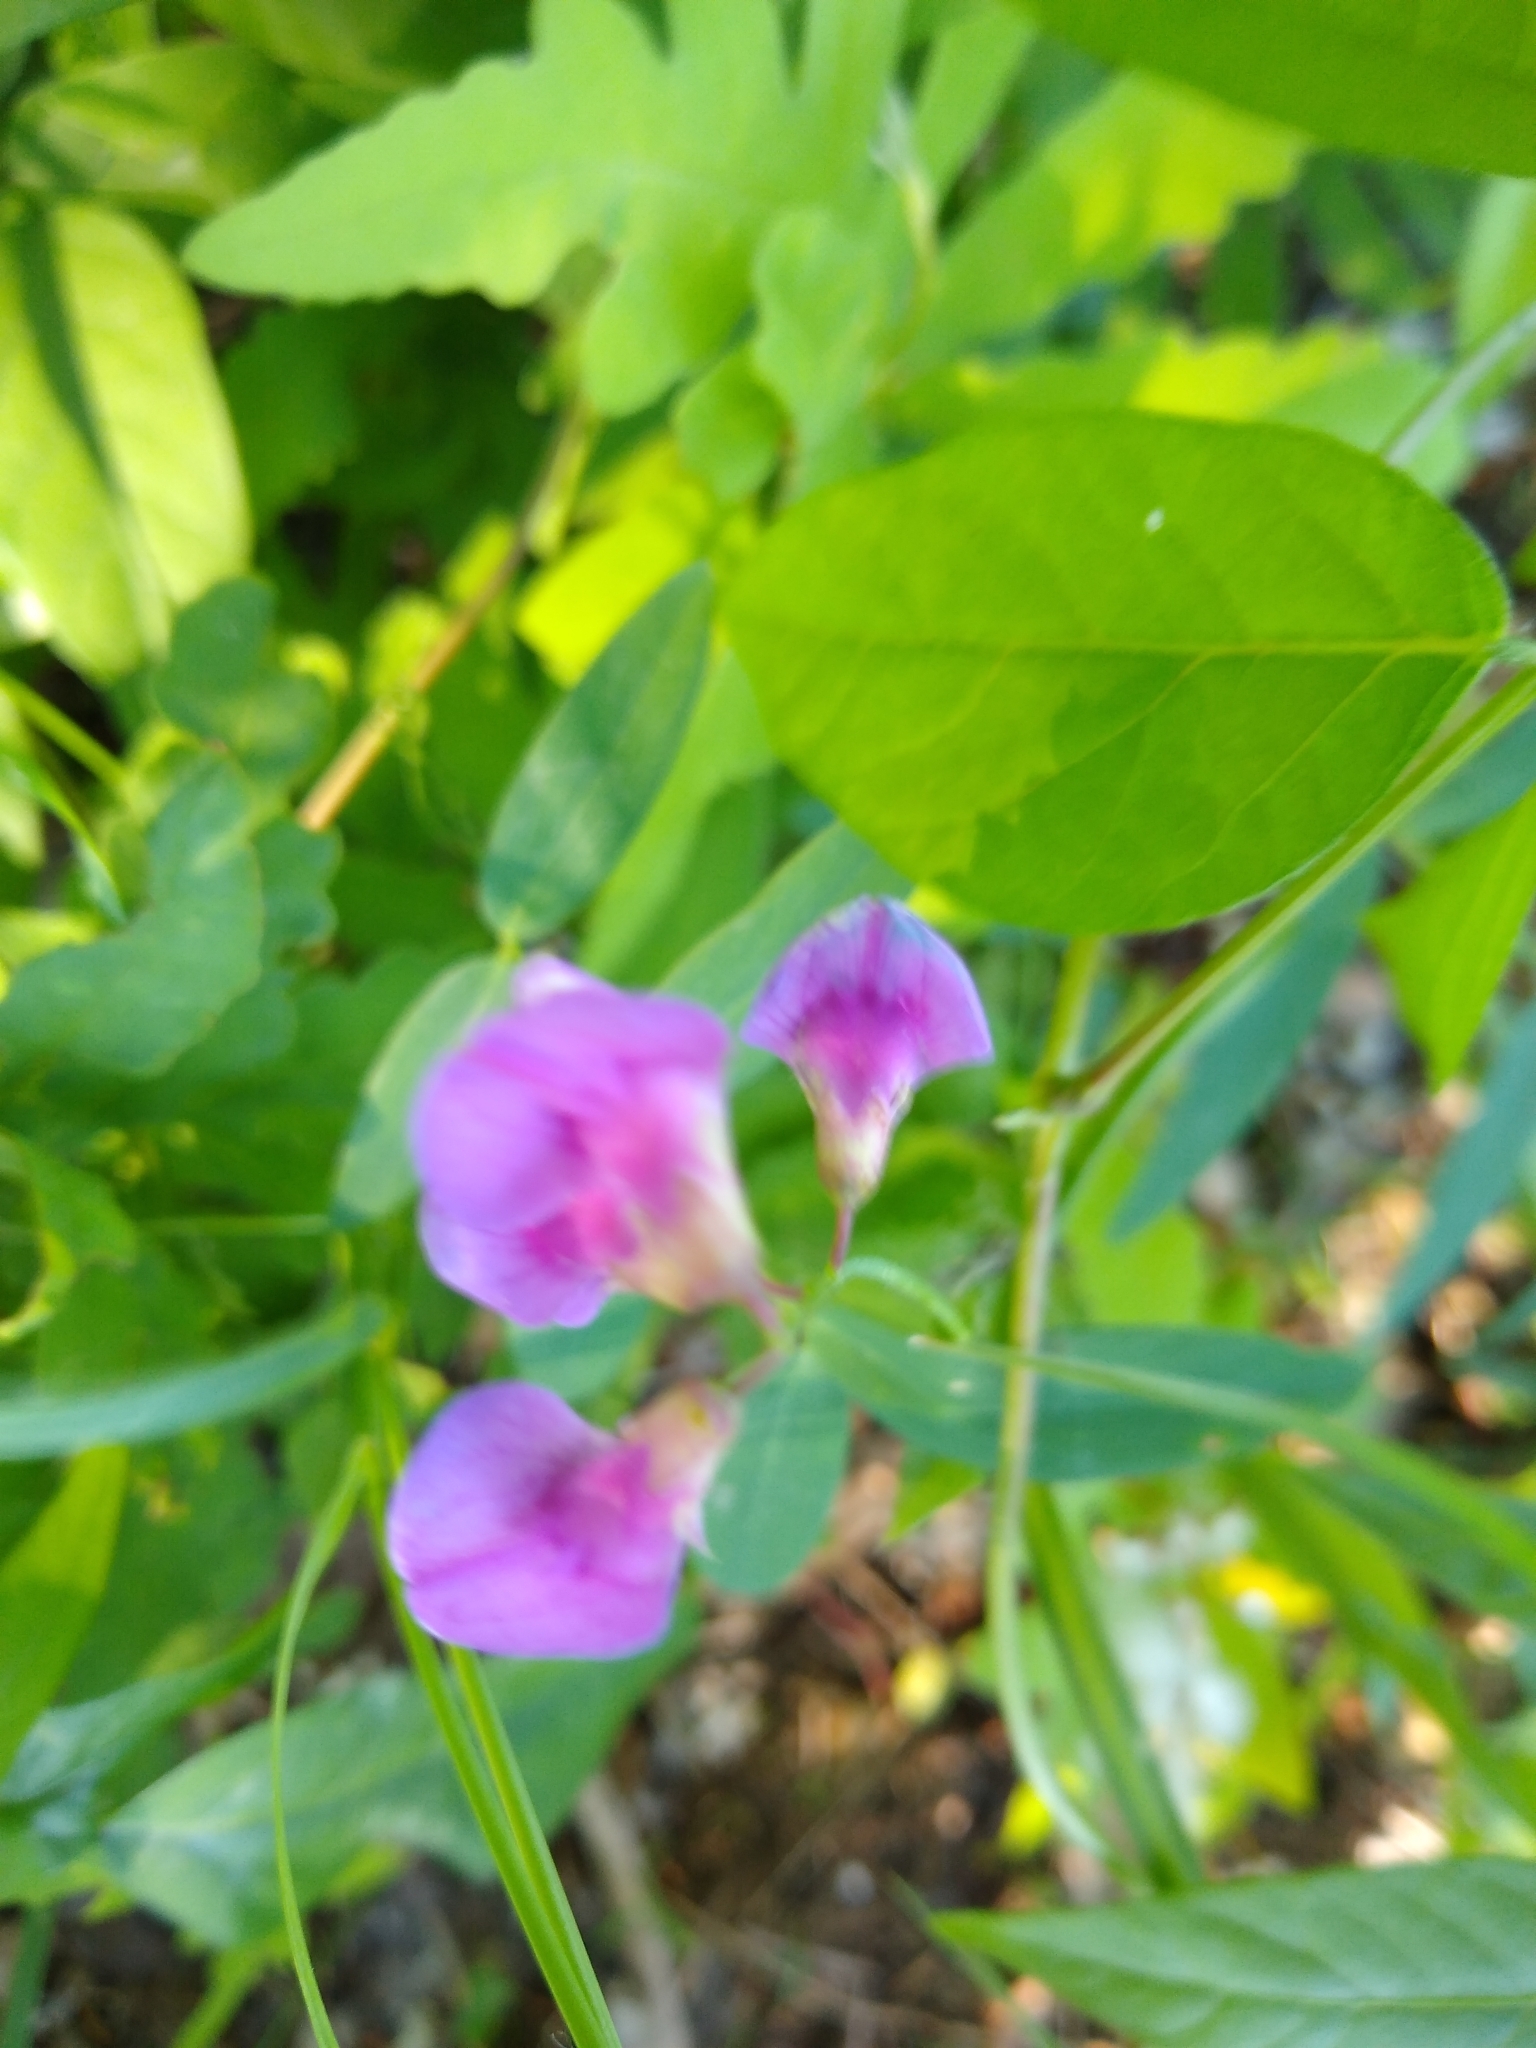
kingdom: Plantae
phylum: Tracheophyta
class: Magnoliopsida
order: Fabales
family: Fabaceae
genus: Lathyrus
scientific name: Lathyrus palustris
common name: Marsh pea
